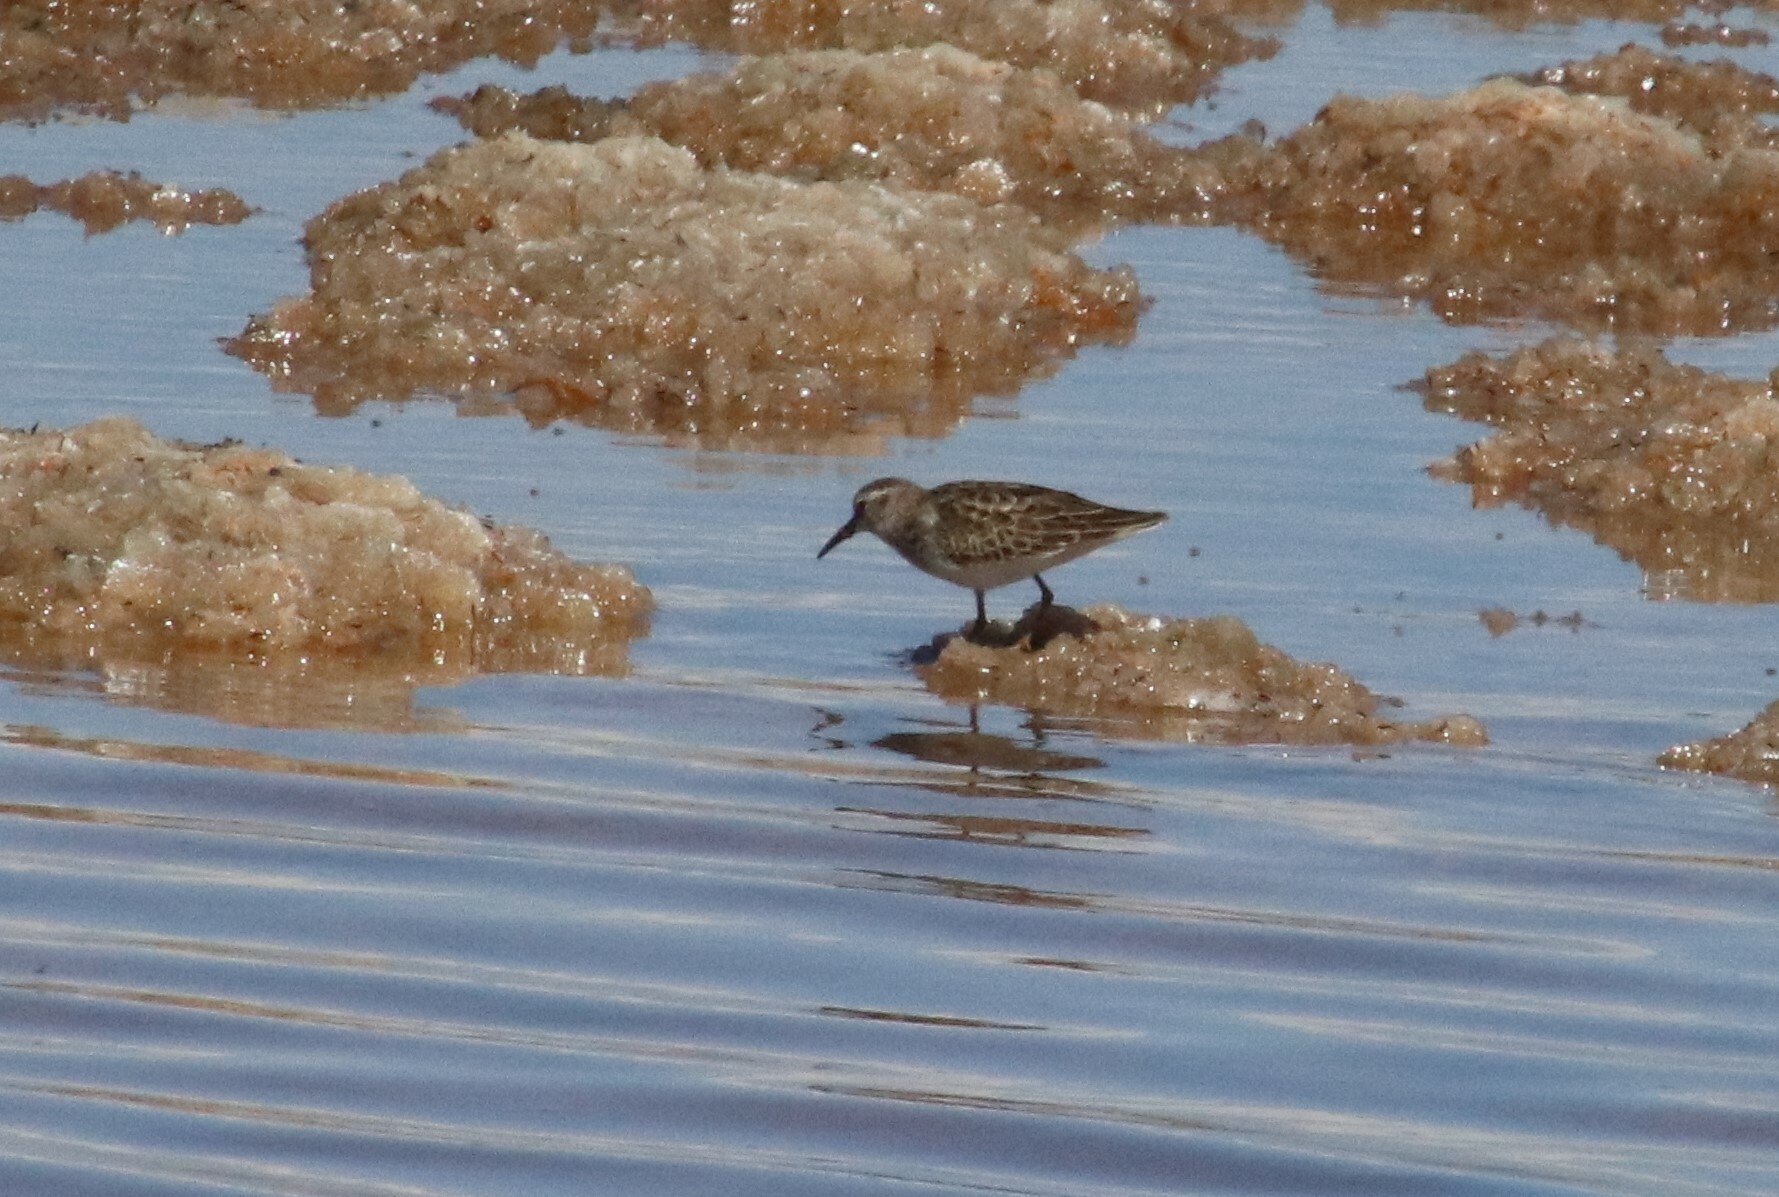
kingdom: Animalia
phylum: Chordata
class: Aves
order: Charadriiformes
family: Scolopacidae
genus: Calidris
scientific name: Calidris minutilla
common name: Least sandpiper
